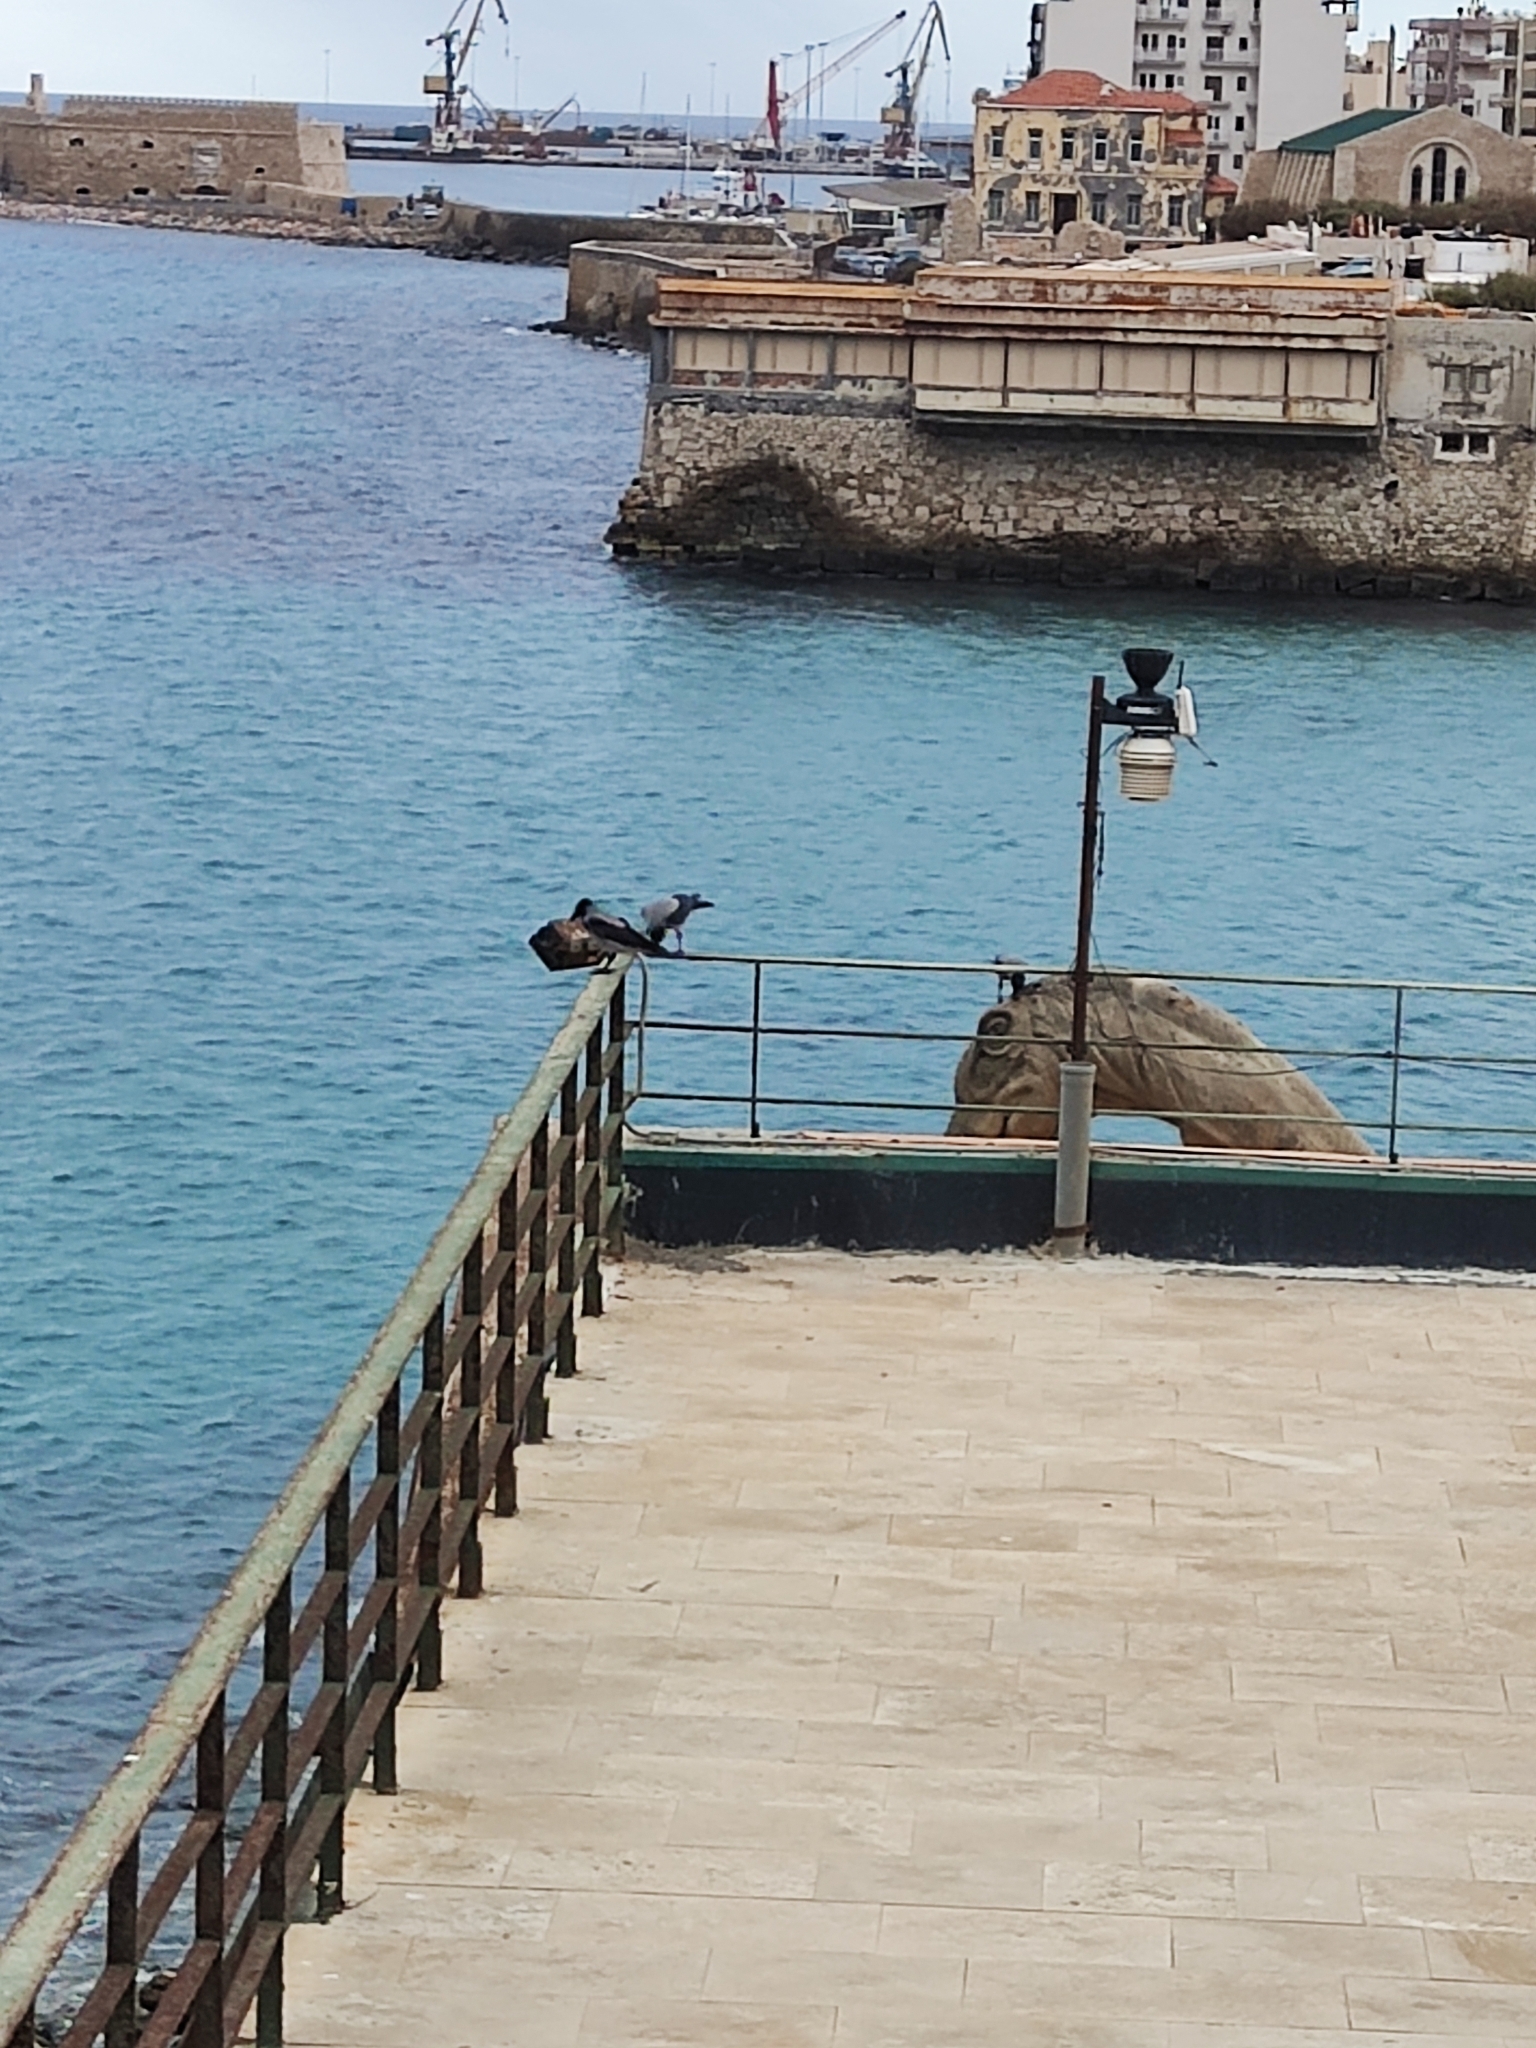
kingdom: Animalia
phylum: Chordata
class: Aves
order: Passeriformes
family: Corvidae
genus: Corvus
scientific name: Corvus cornix
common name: Hooded crow
